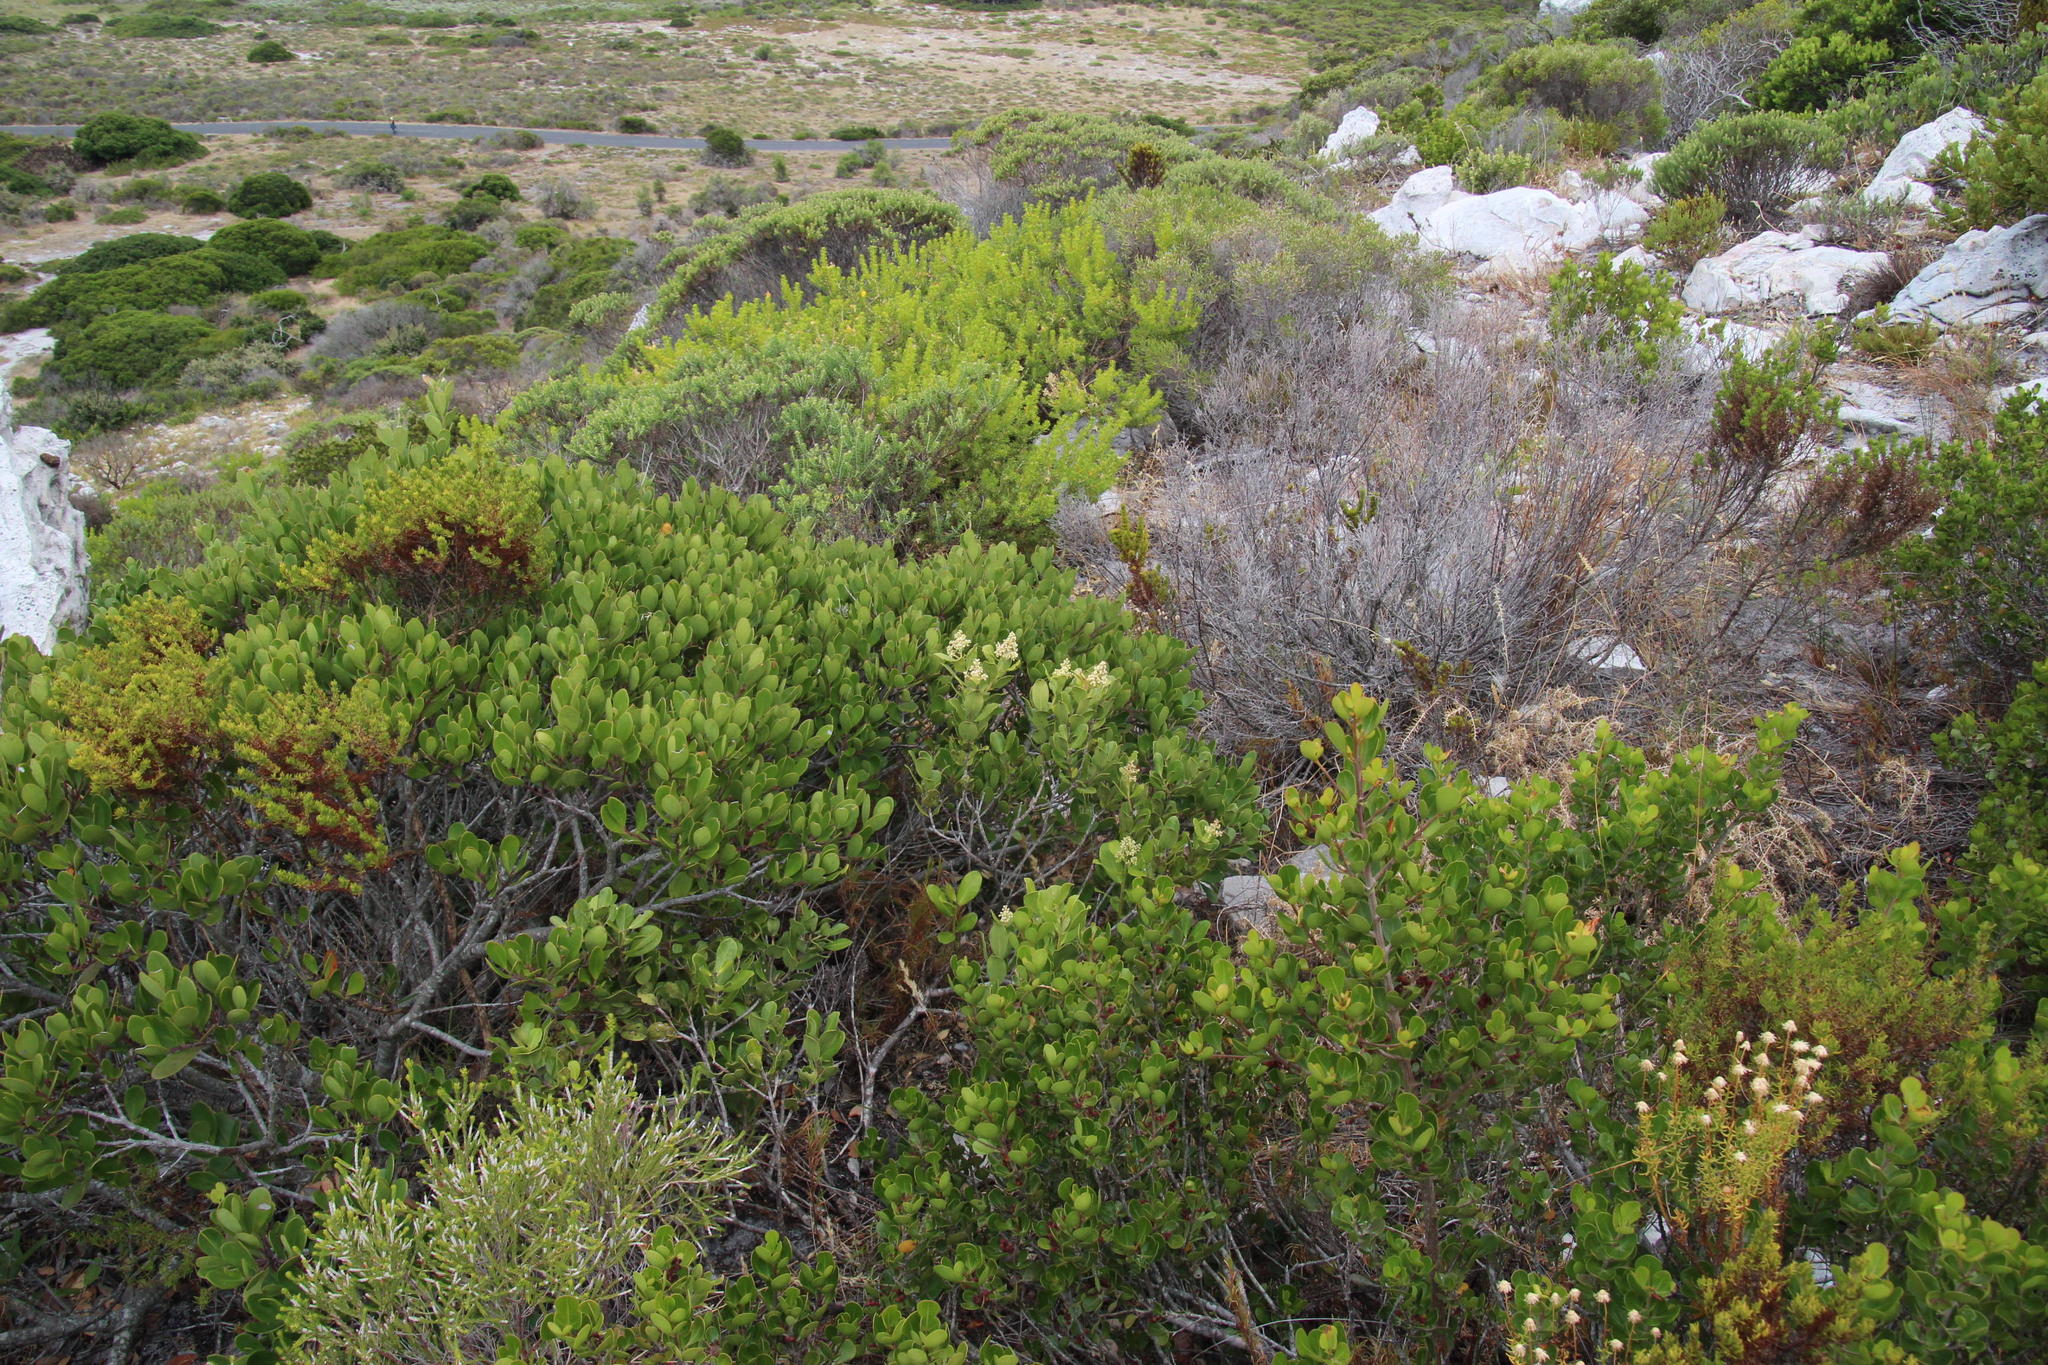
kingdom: Plantae
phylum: Tracheophyta
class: Magnoliopsida
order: Lamiales
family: Oleaceae
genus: Olea
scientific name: Olea capensis
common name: Black ironwood
